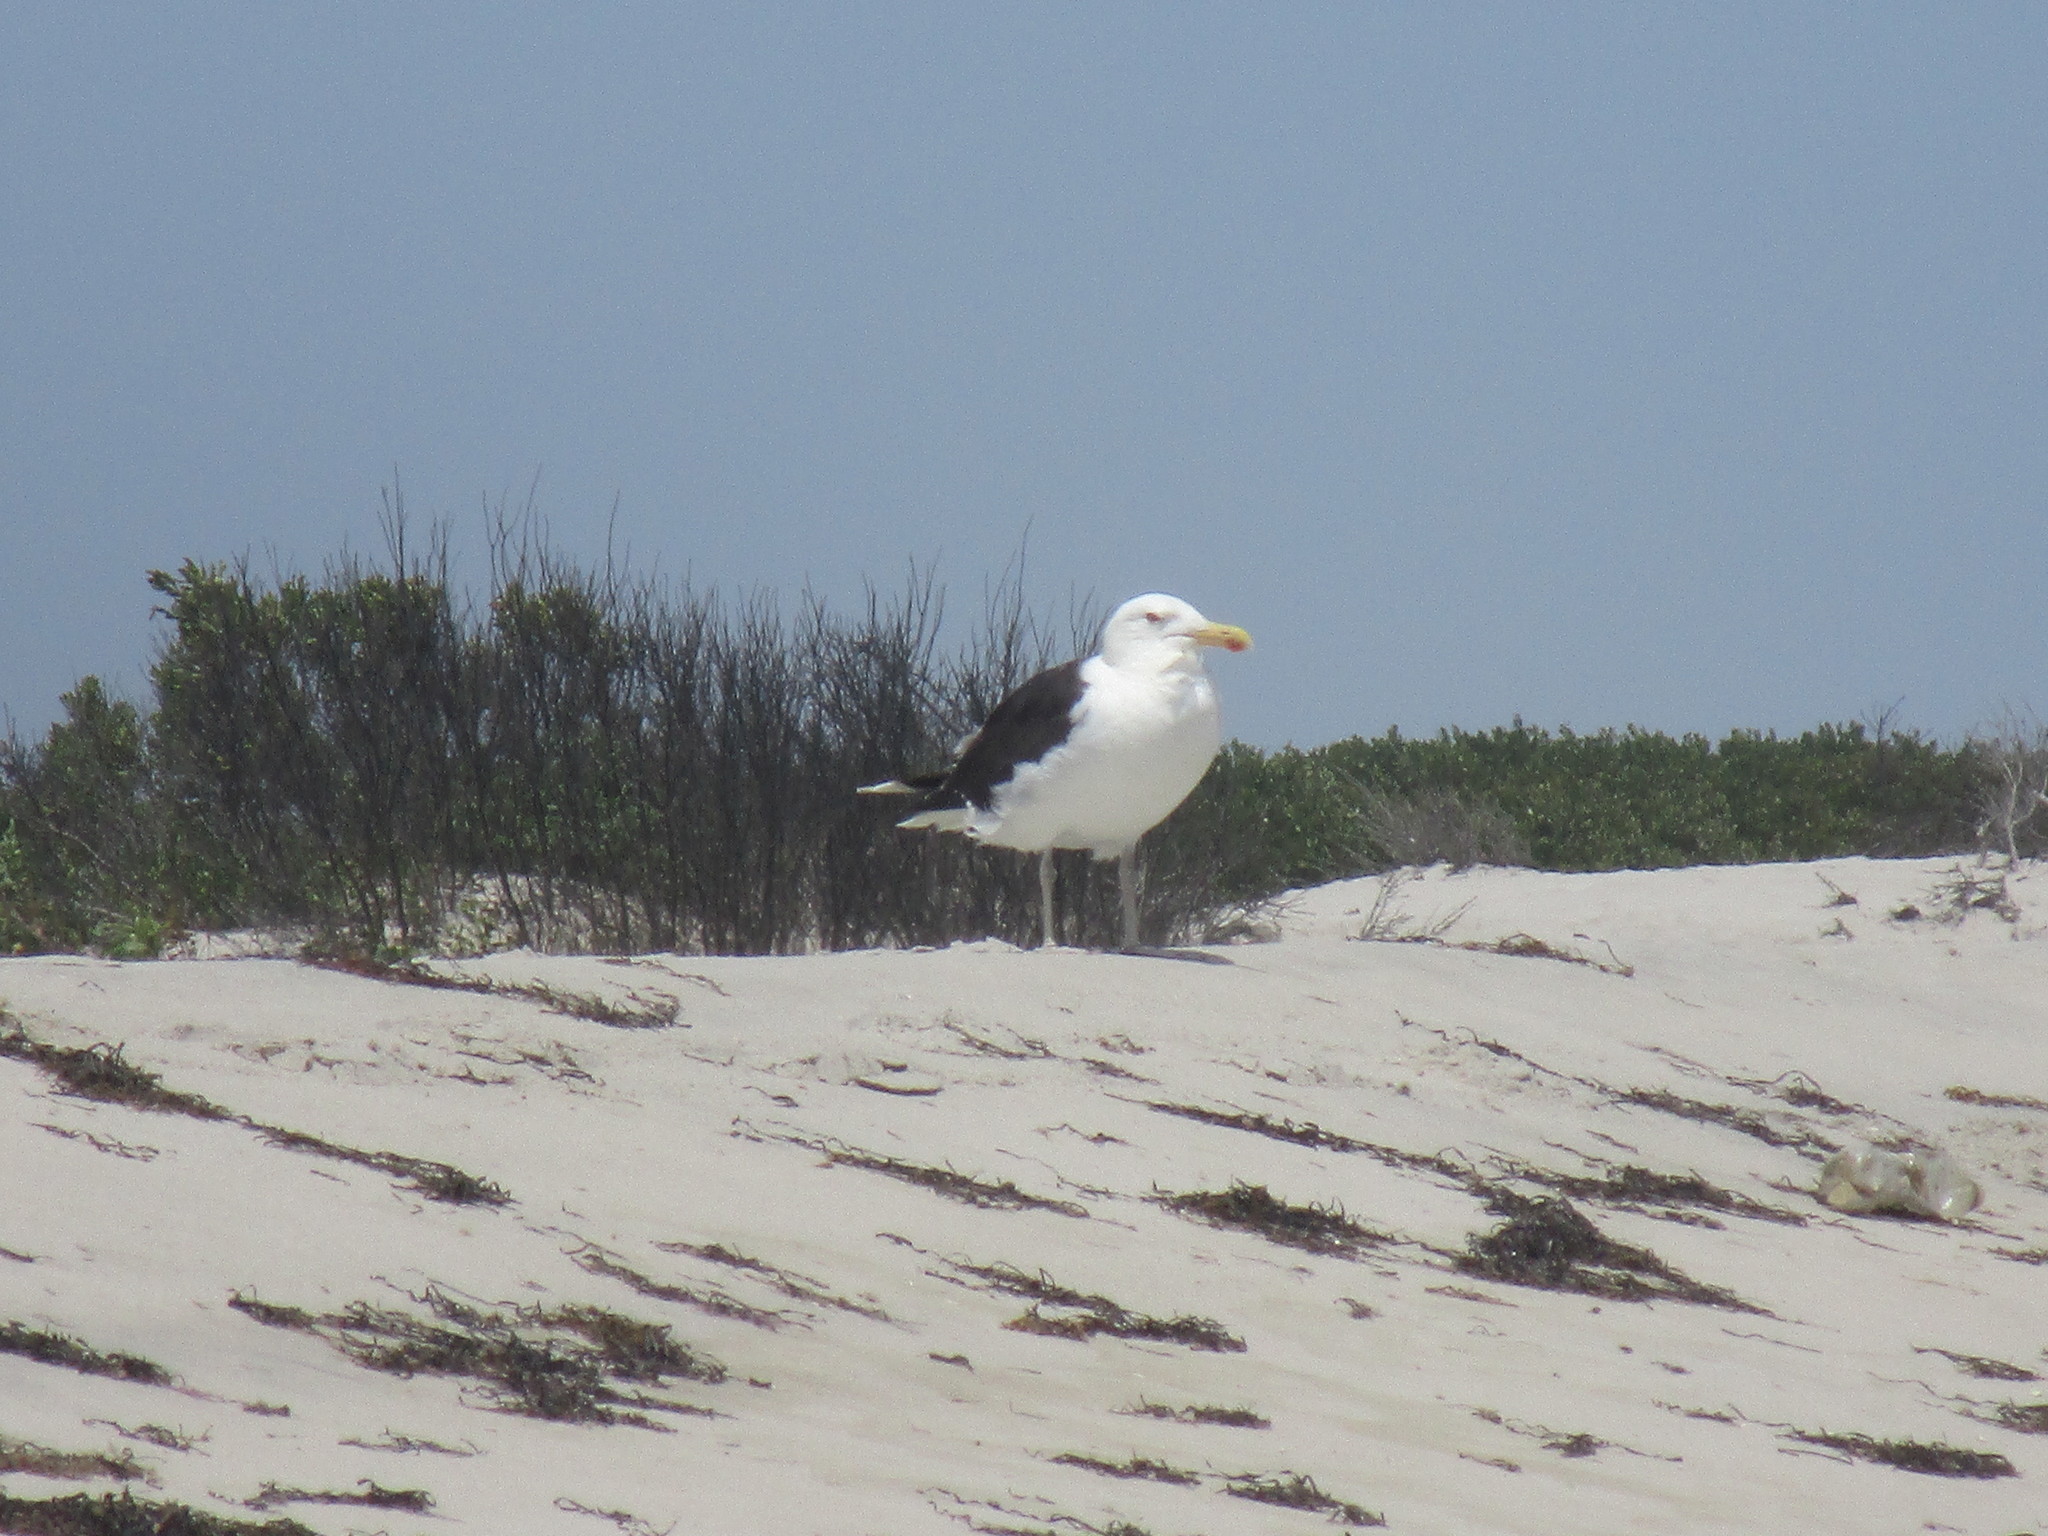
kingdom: Animalia
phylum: Chordata
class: Aves
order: Charadriiformes
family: Laridae
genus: Larus
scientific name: Larus marinus
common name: Great black-backed gull
